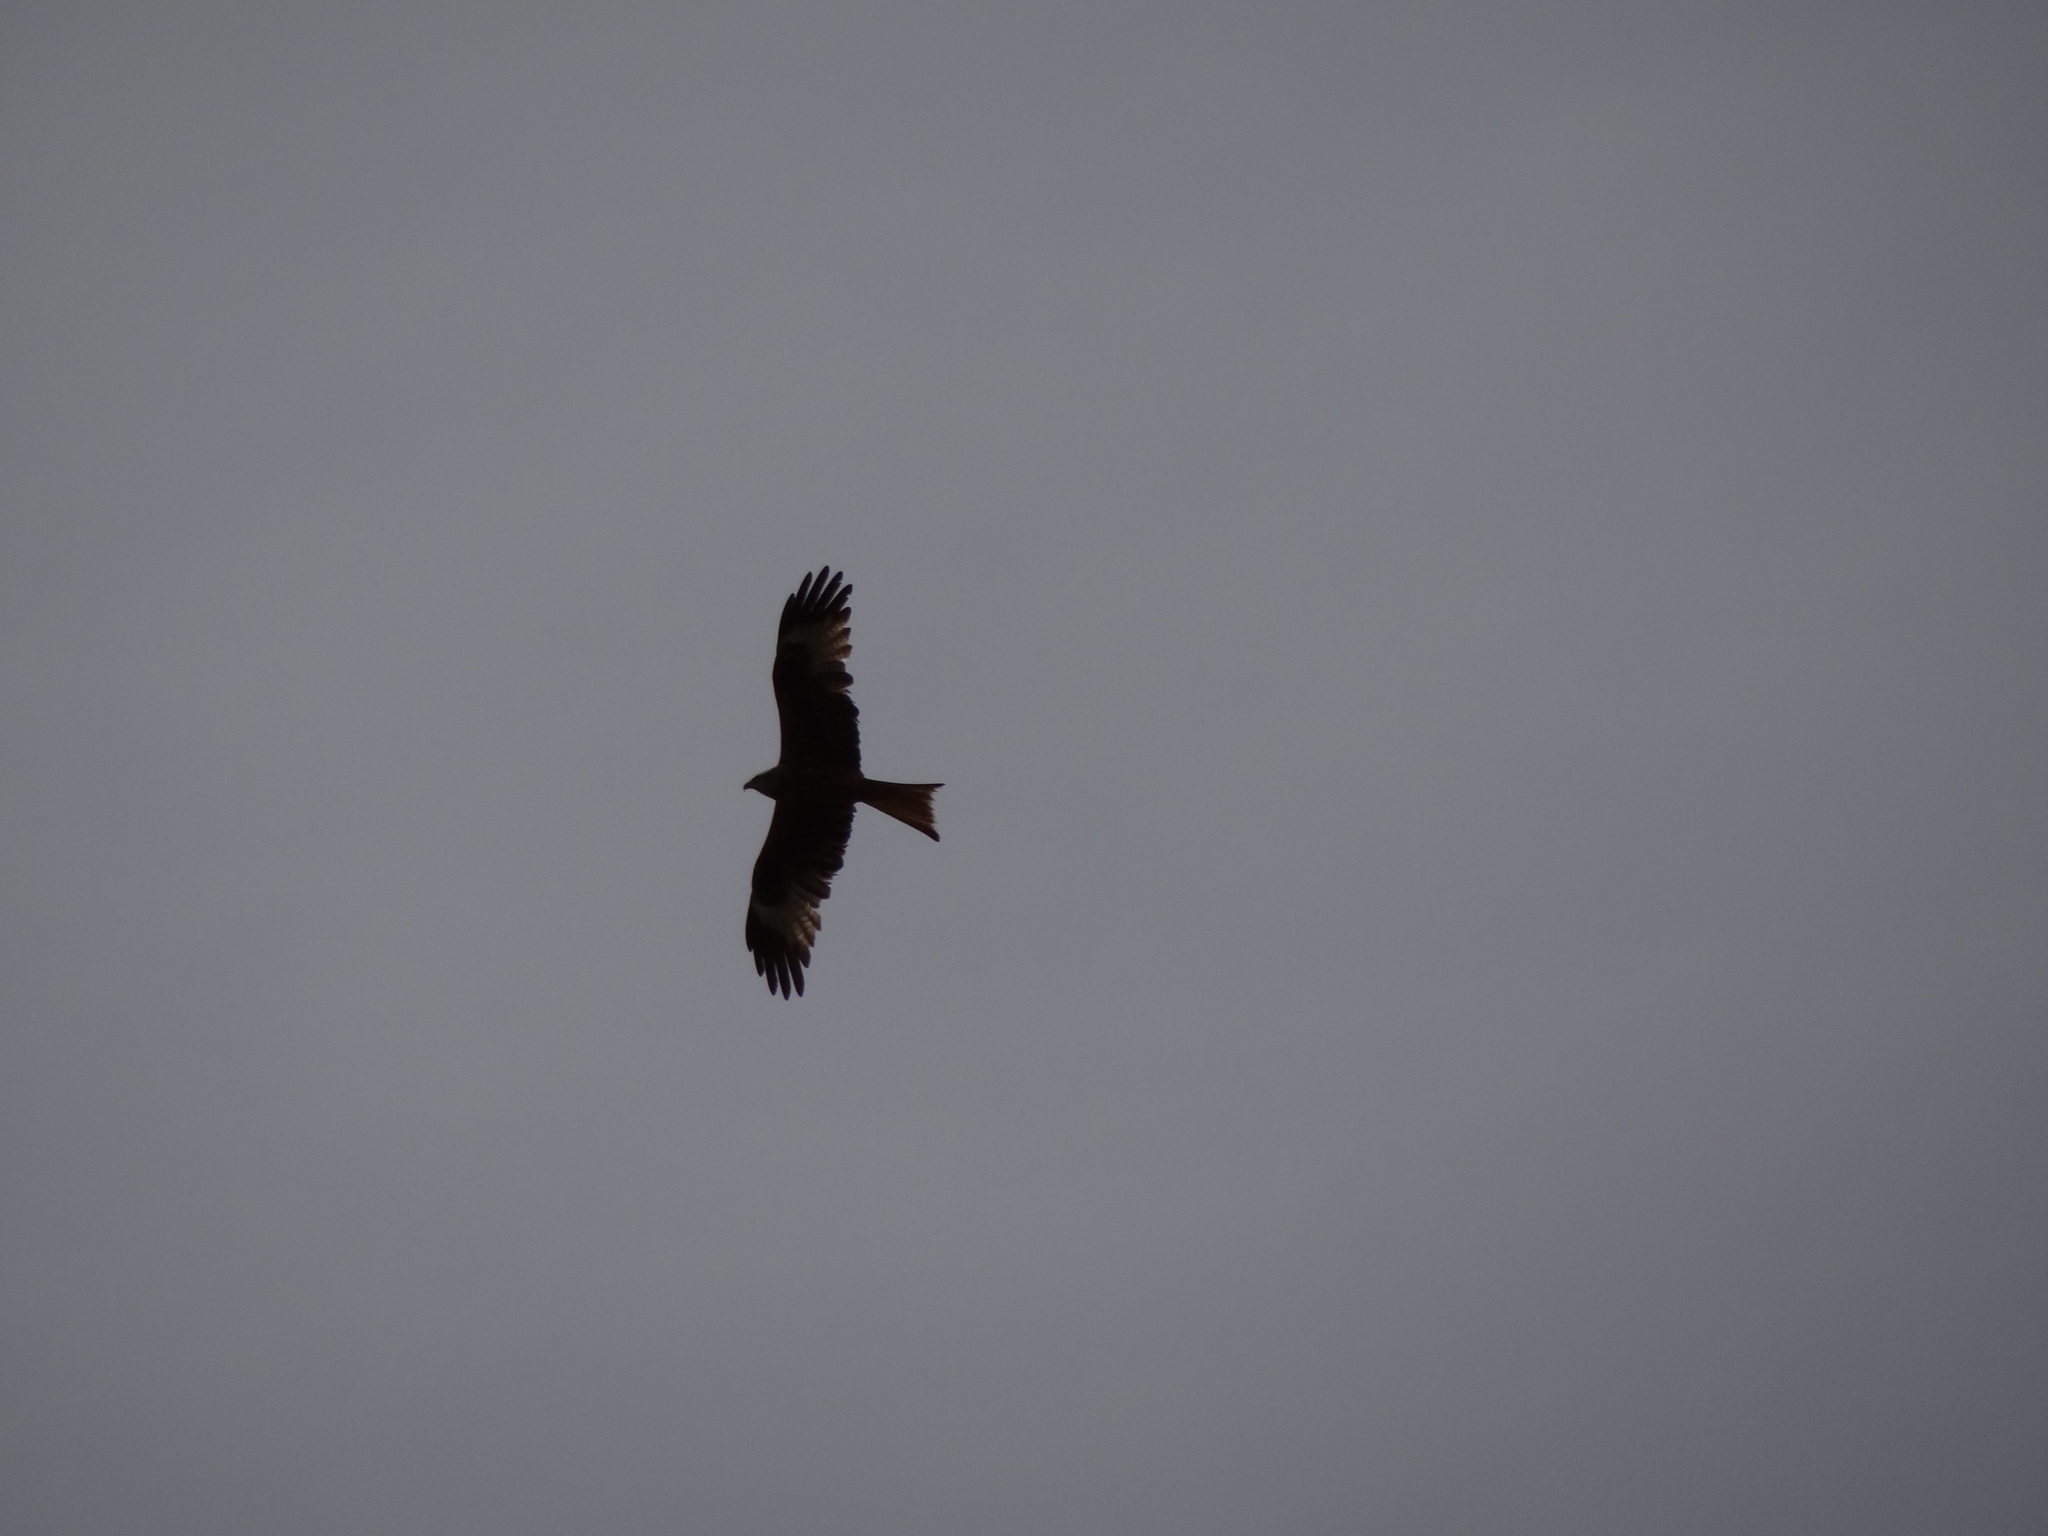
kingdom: Animalia
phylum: Chordata
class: Aves
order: Accipitriformes
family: Accipitridae
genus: Milvus
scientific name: Milvus milvus
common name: Red kite
